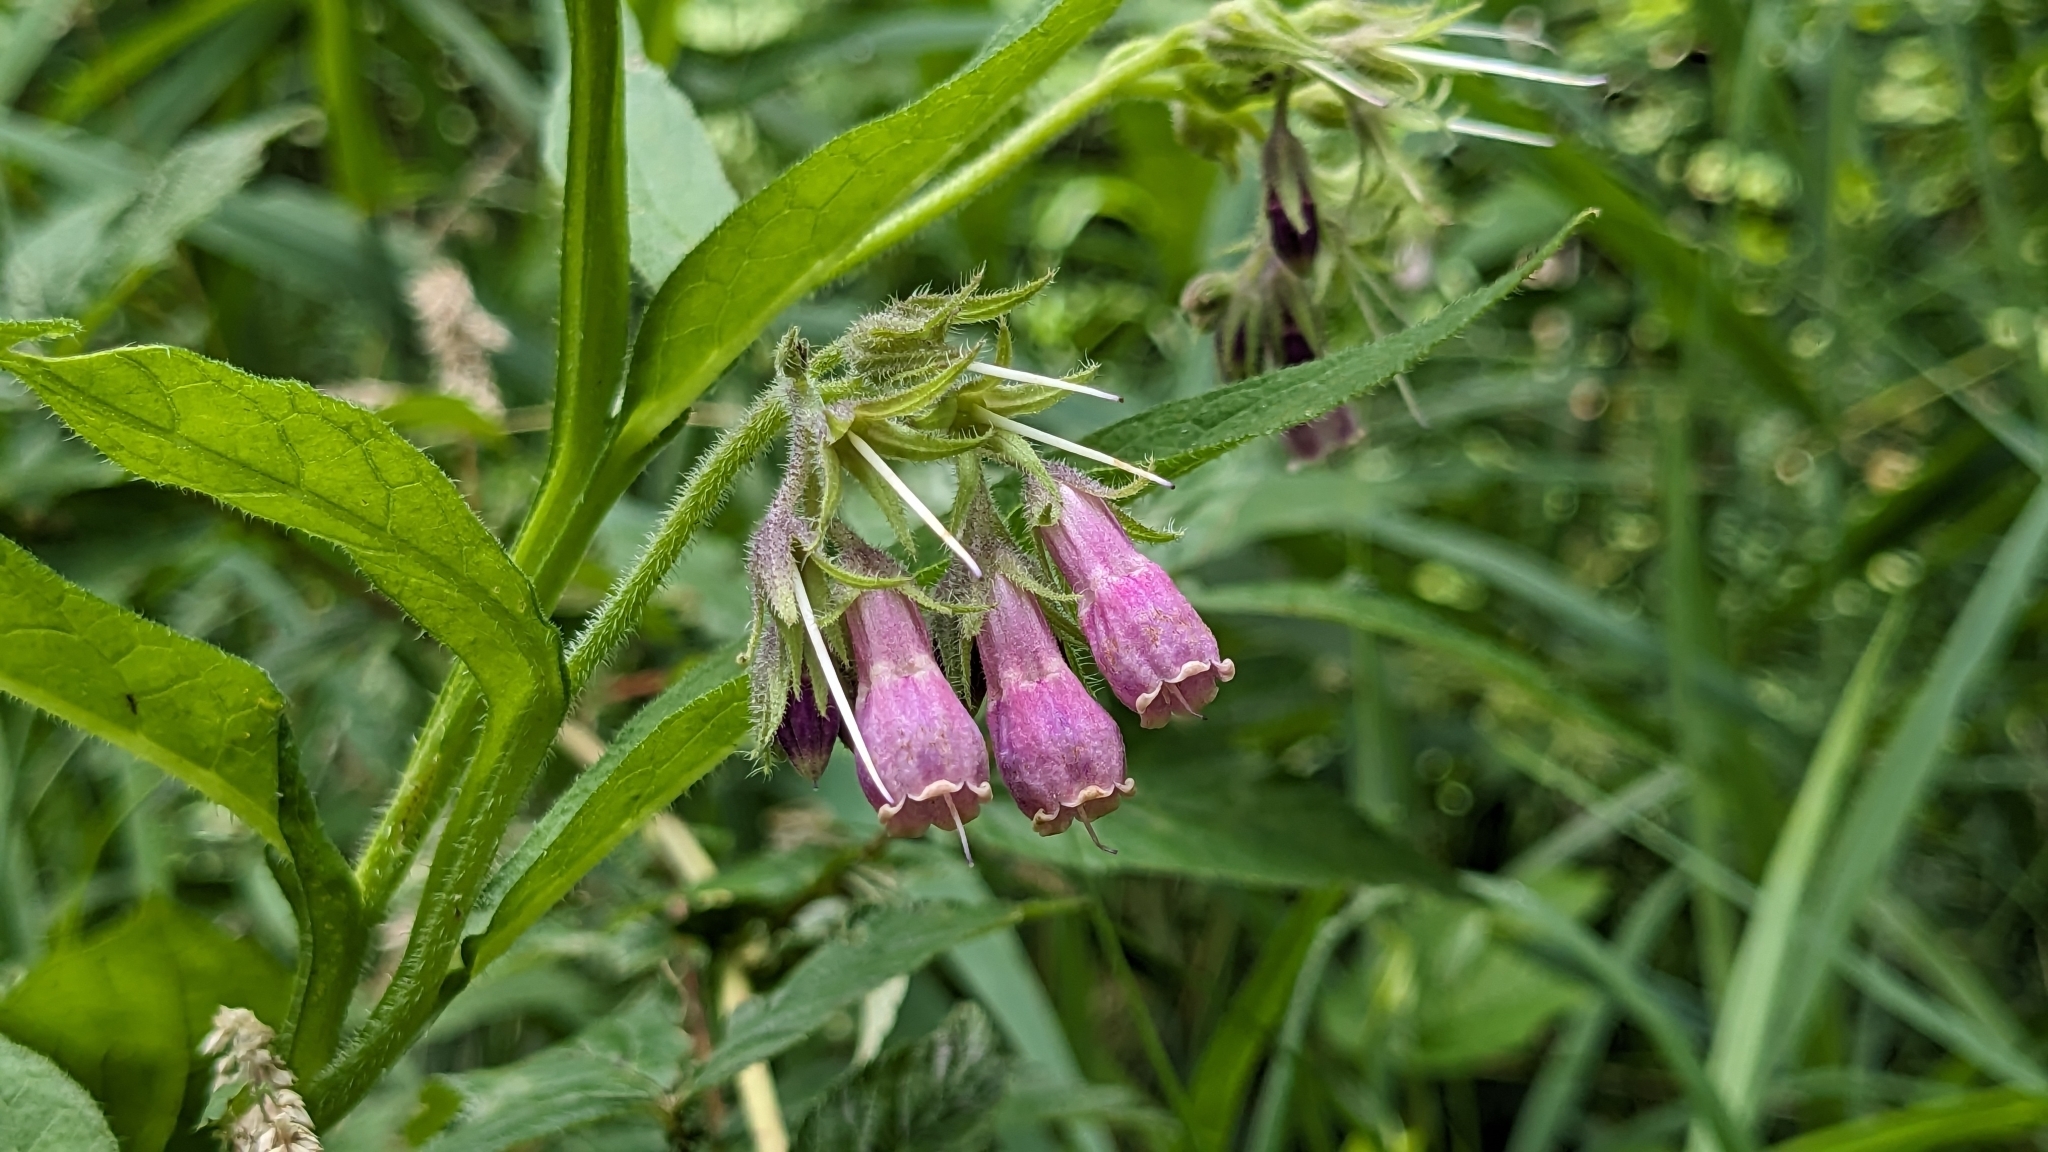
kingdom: Plantae
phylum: Tracheophyta
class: Magnoliopsida
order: Boraginales
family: Boraginaceae
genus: Symphytum
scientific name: Symphytum officinale
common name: Common comfrey
